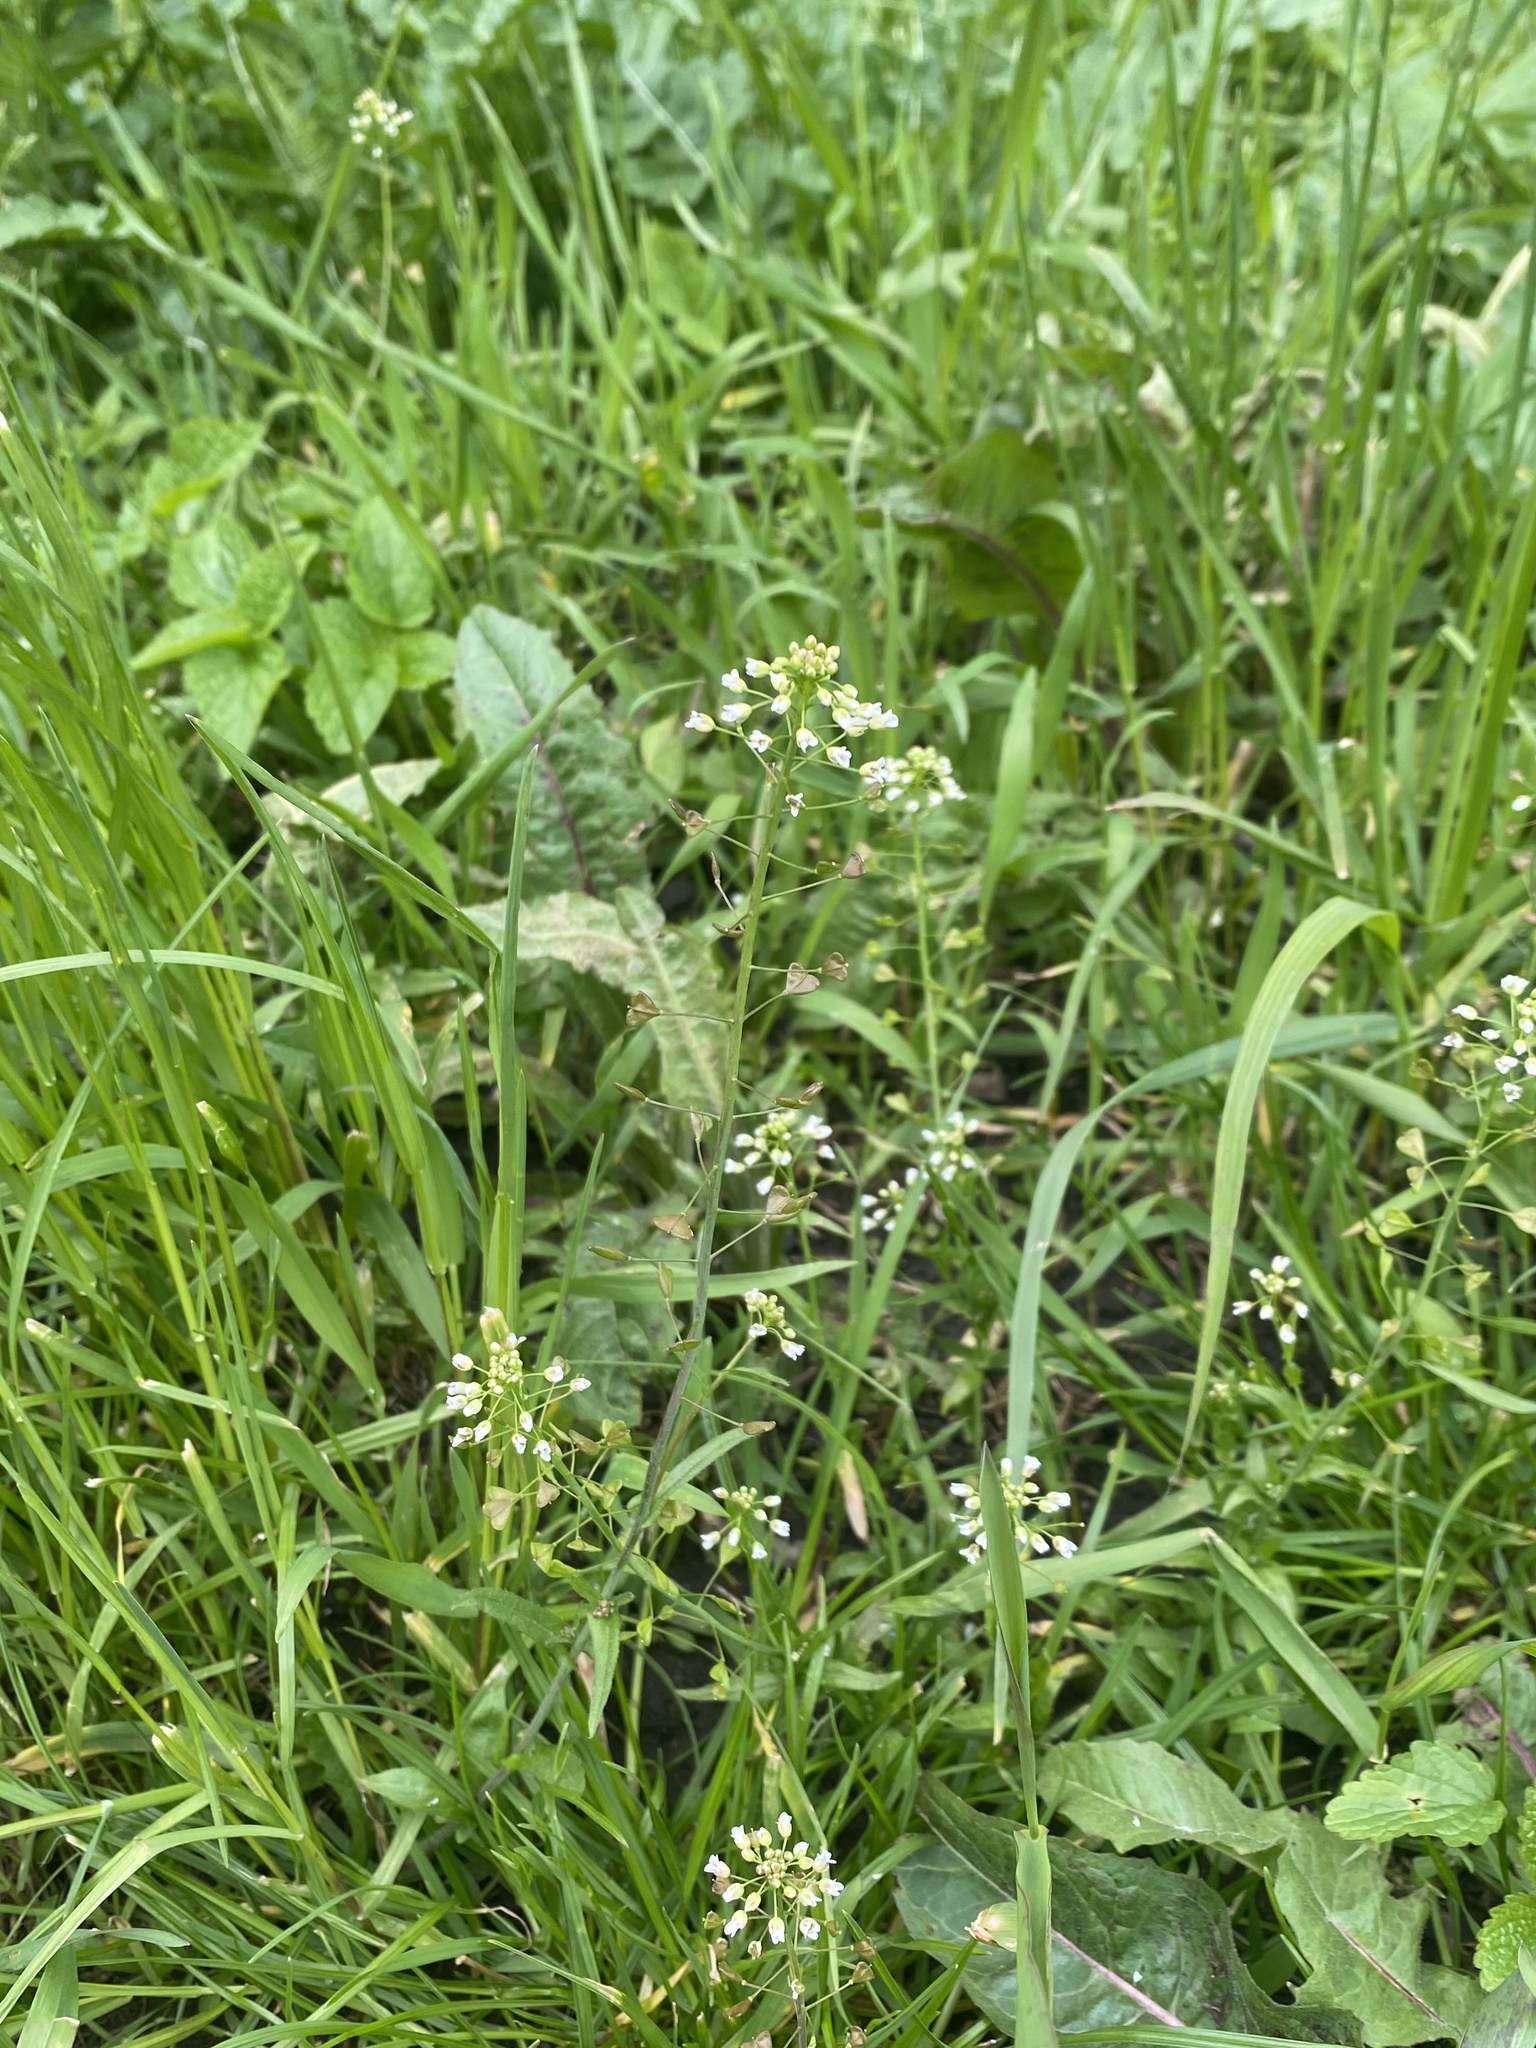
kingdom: Plantae
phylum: Tracheophyta
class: Magnoliopsida
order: Brassicales
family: Brassicaceae
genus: Capsella
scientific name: Capsella bursa-pastoris
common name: Shepherd's purse
